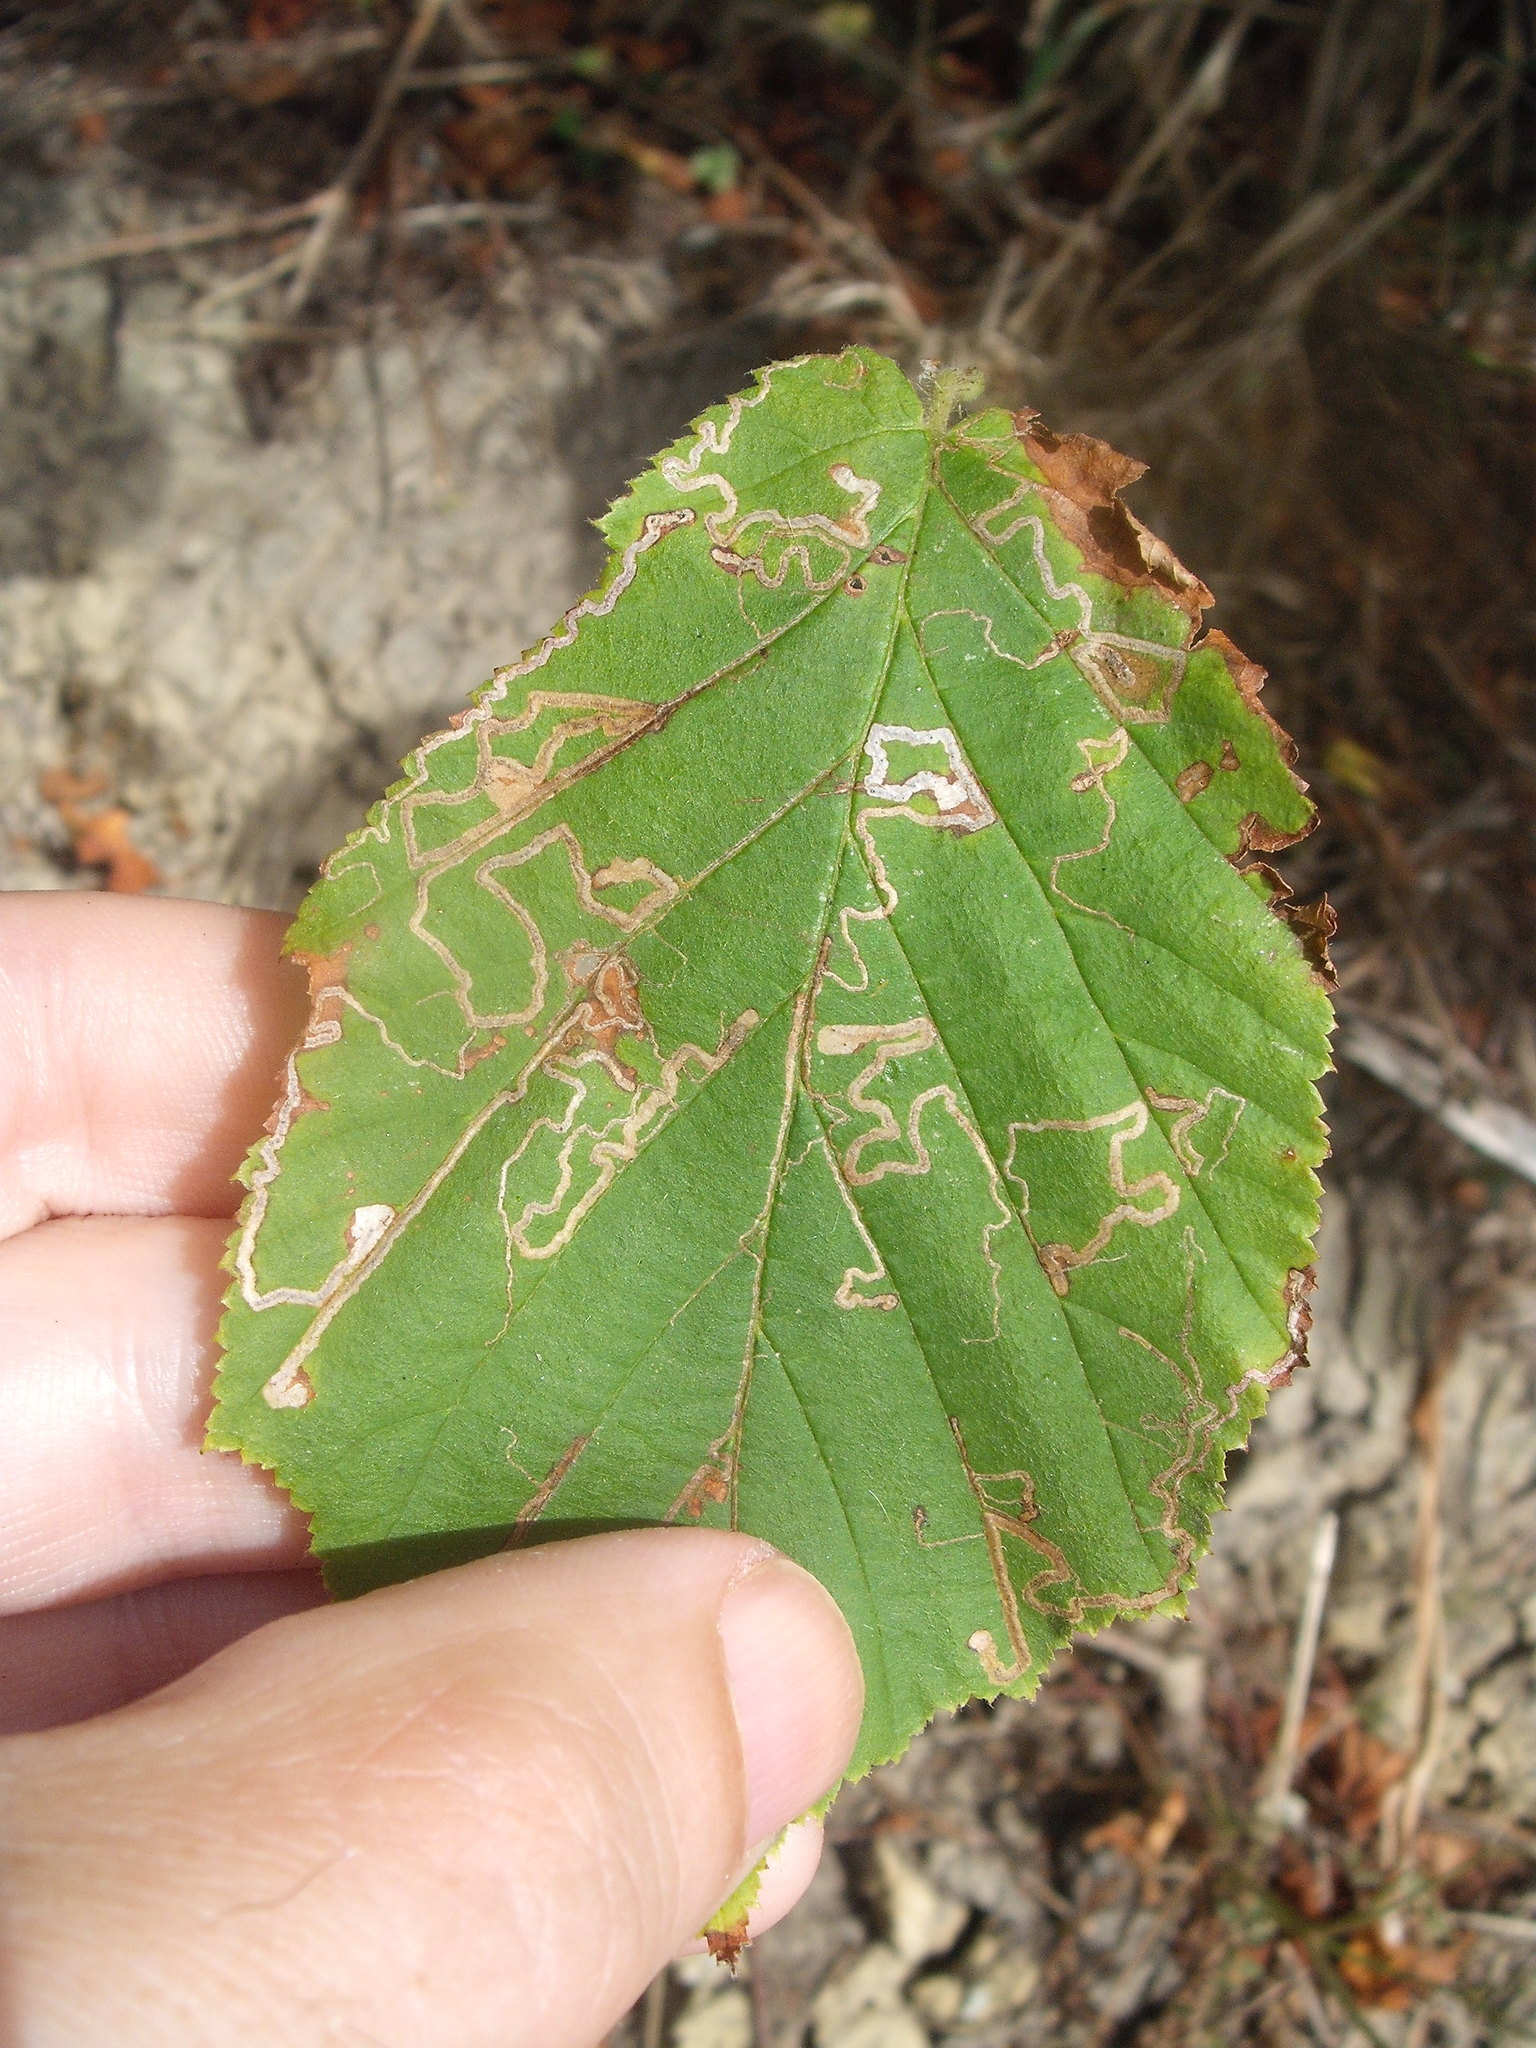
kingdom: Animalia
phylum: Arthropoda
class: Insecta
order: Lepidoptera
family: Nepticulidae
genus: Stigmella
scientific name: Stigmella microtheriella
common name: Nut-tree pigmy
